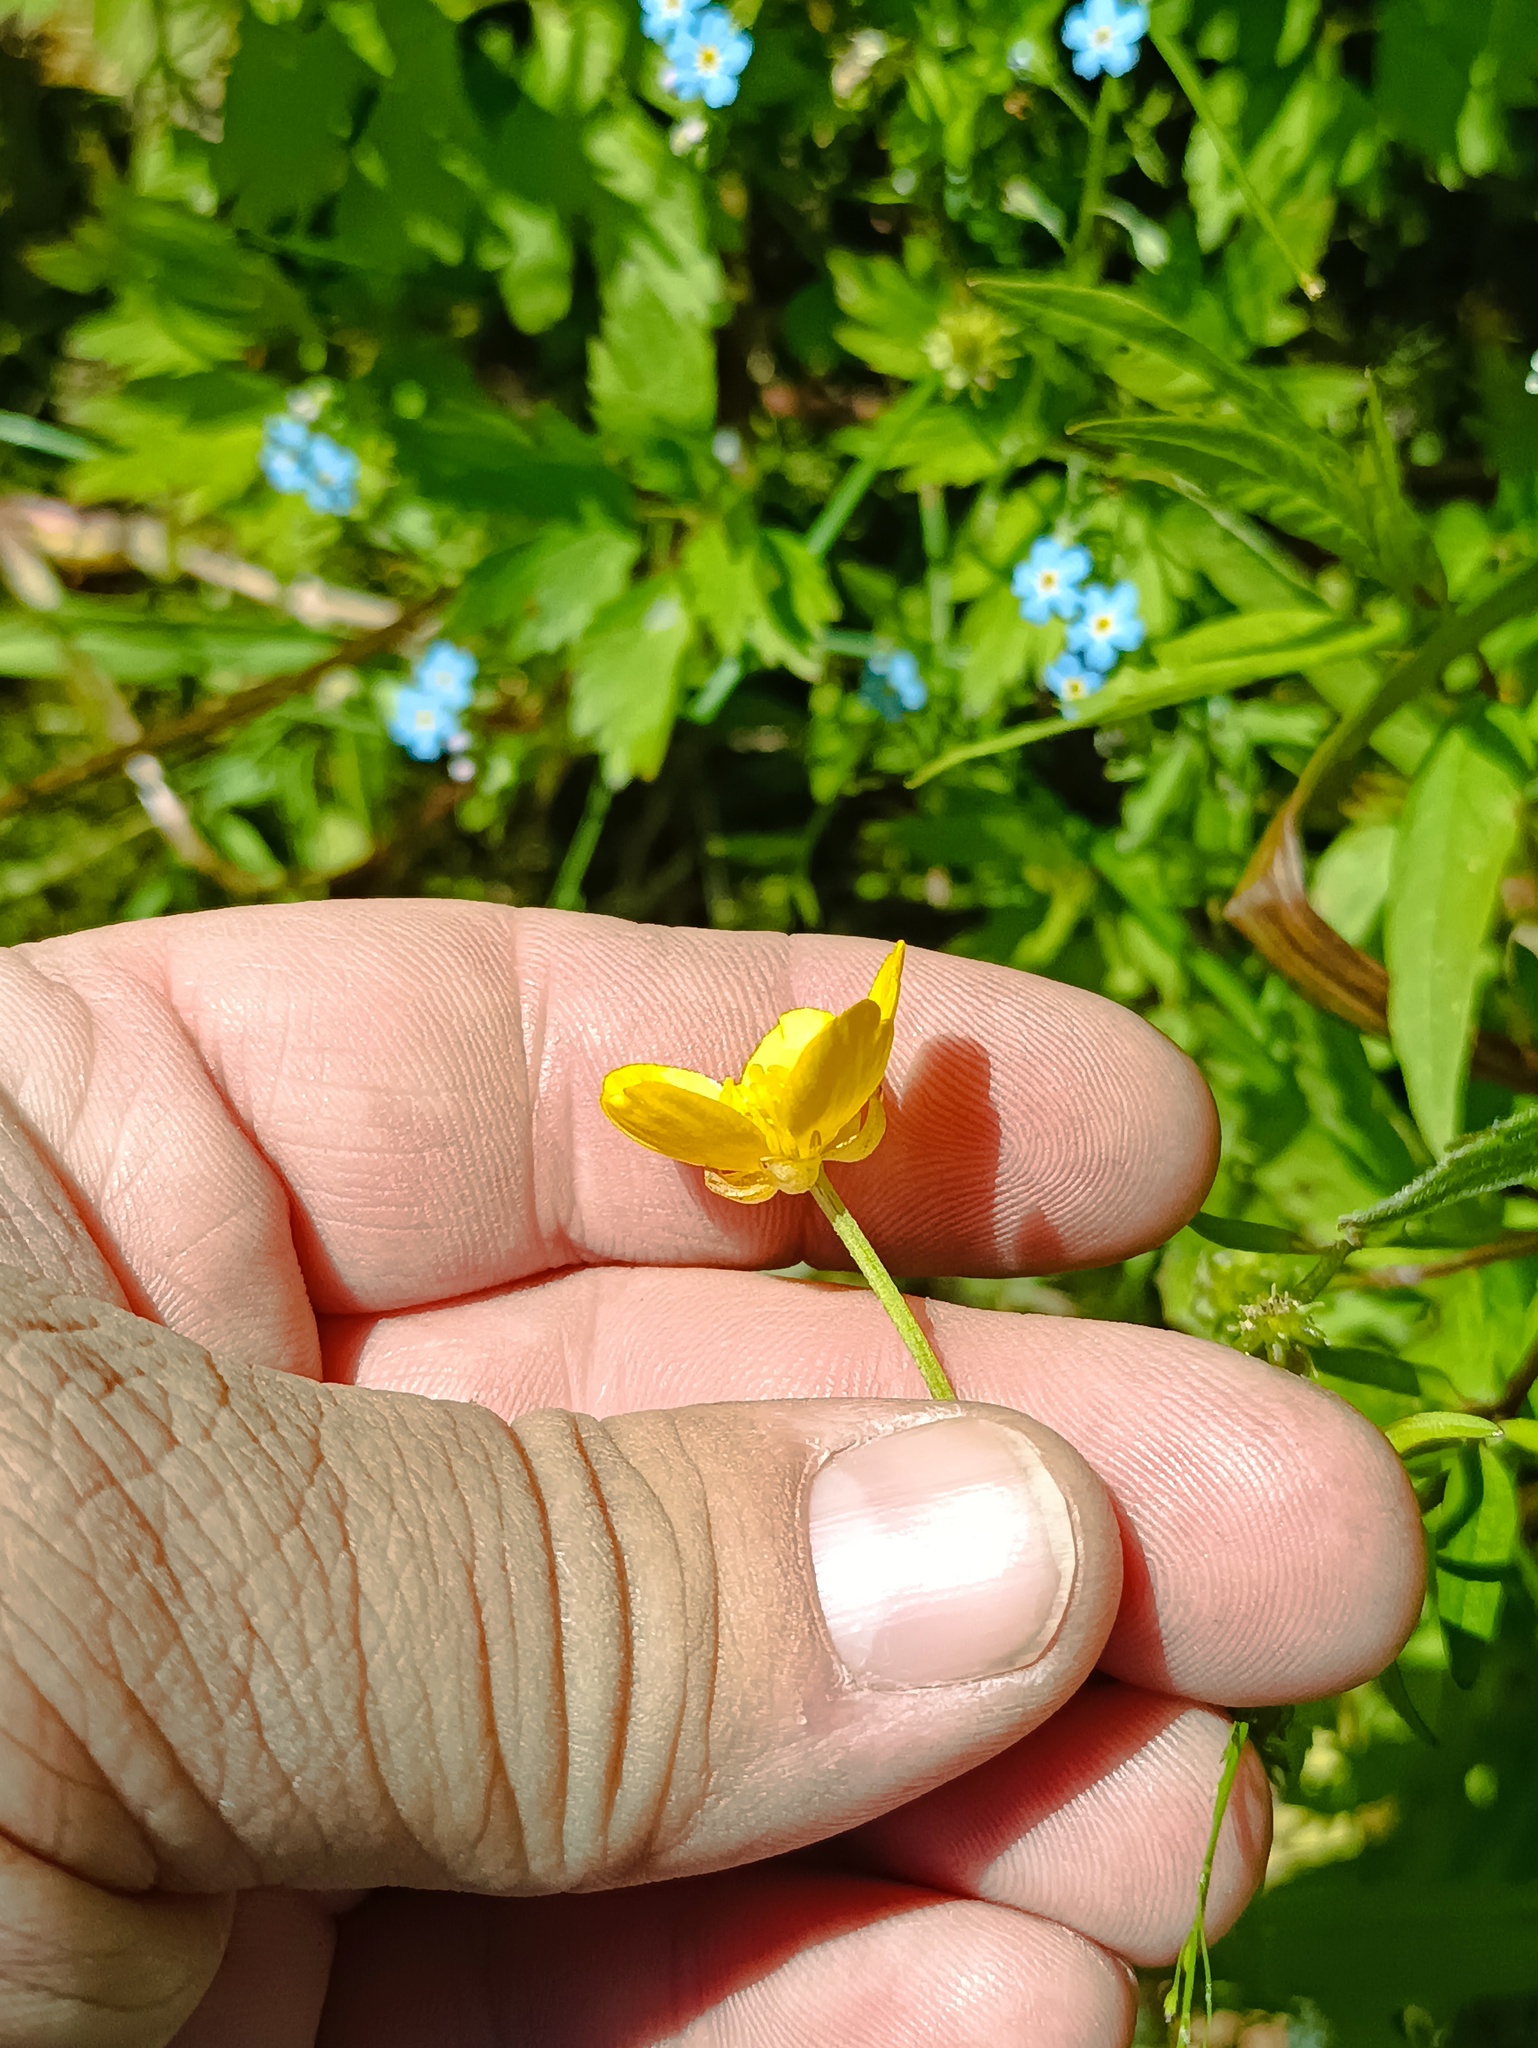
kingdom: Plantae
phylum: Tracheophyta
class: Magnoliopsida
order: Ranunculales
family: Ranunculaceae
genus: Ranunculus
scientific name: Ranunculus repens
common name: Creeping buttercup
